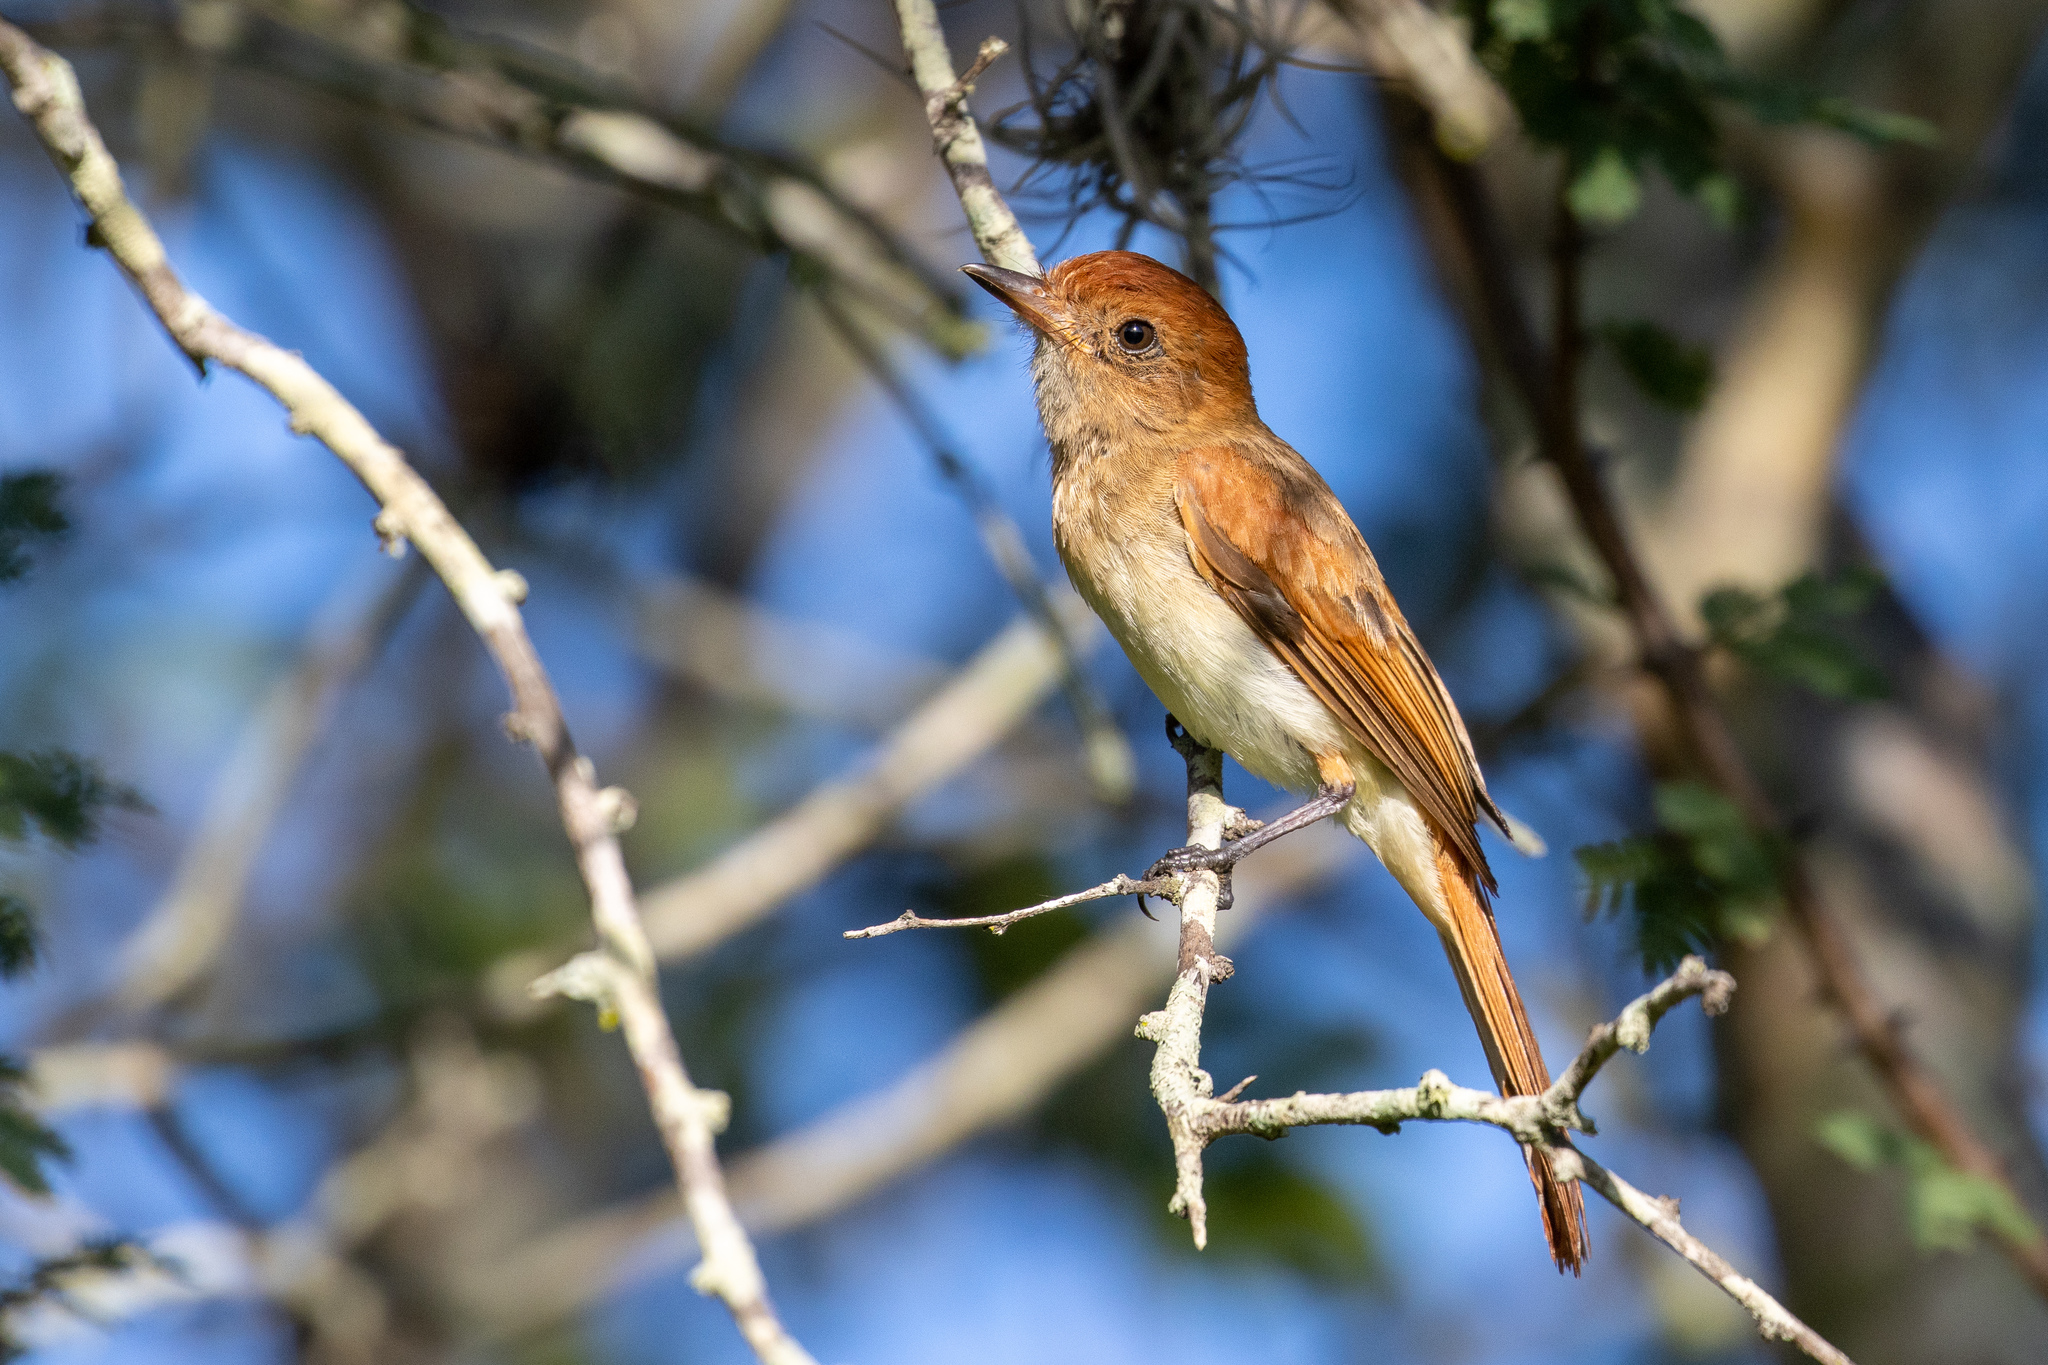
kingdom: Animalia
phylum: Chordata
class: Aves
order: Passeriformes
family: Tyrannidae
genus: Casiornis
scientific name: Casiornis fuscus
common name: Ash-throated casiornis
